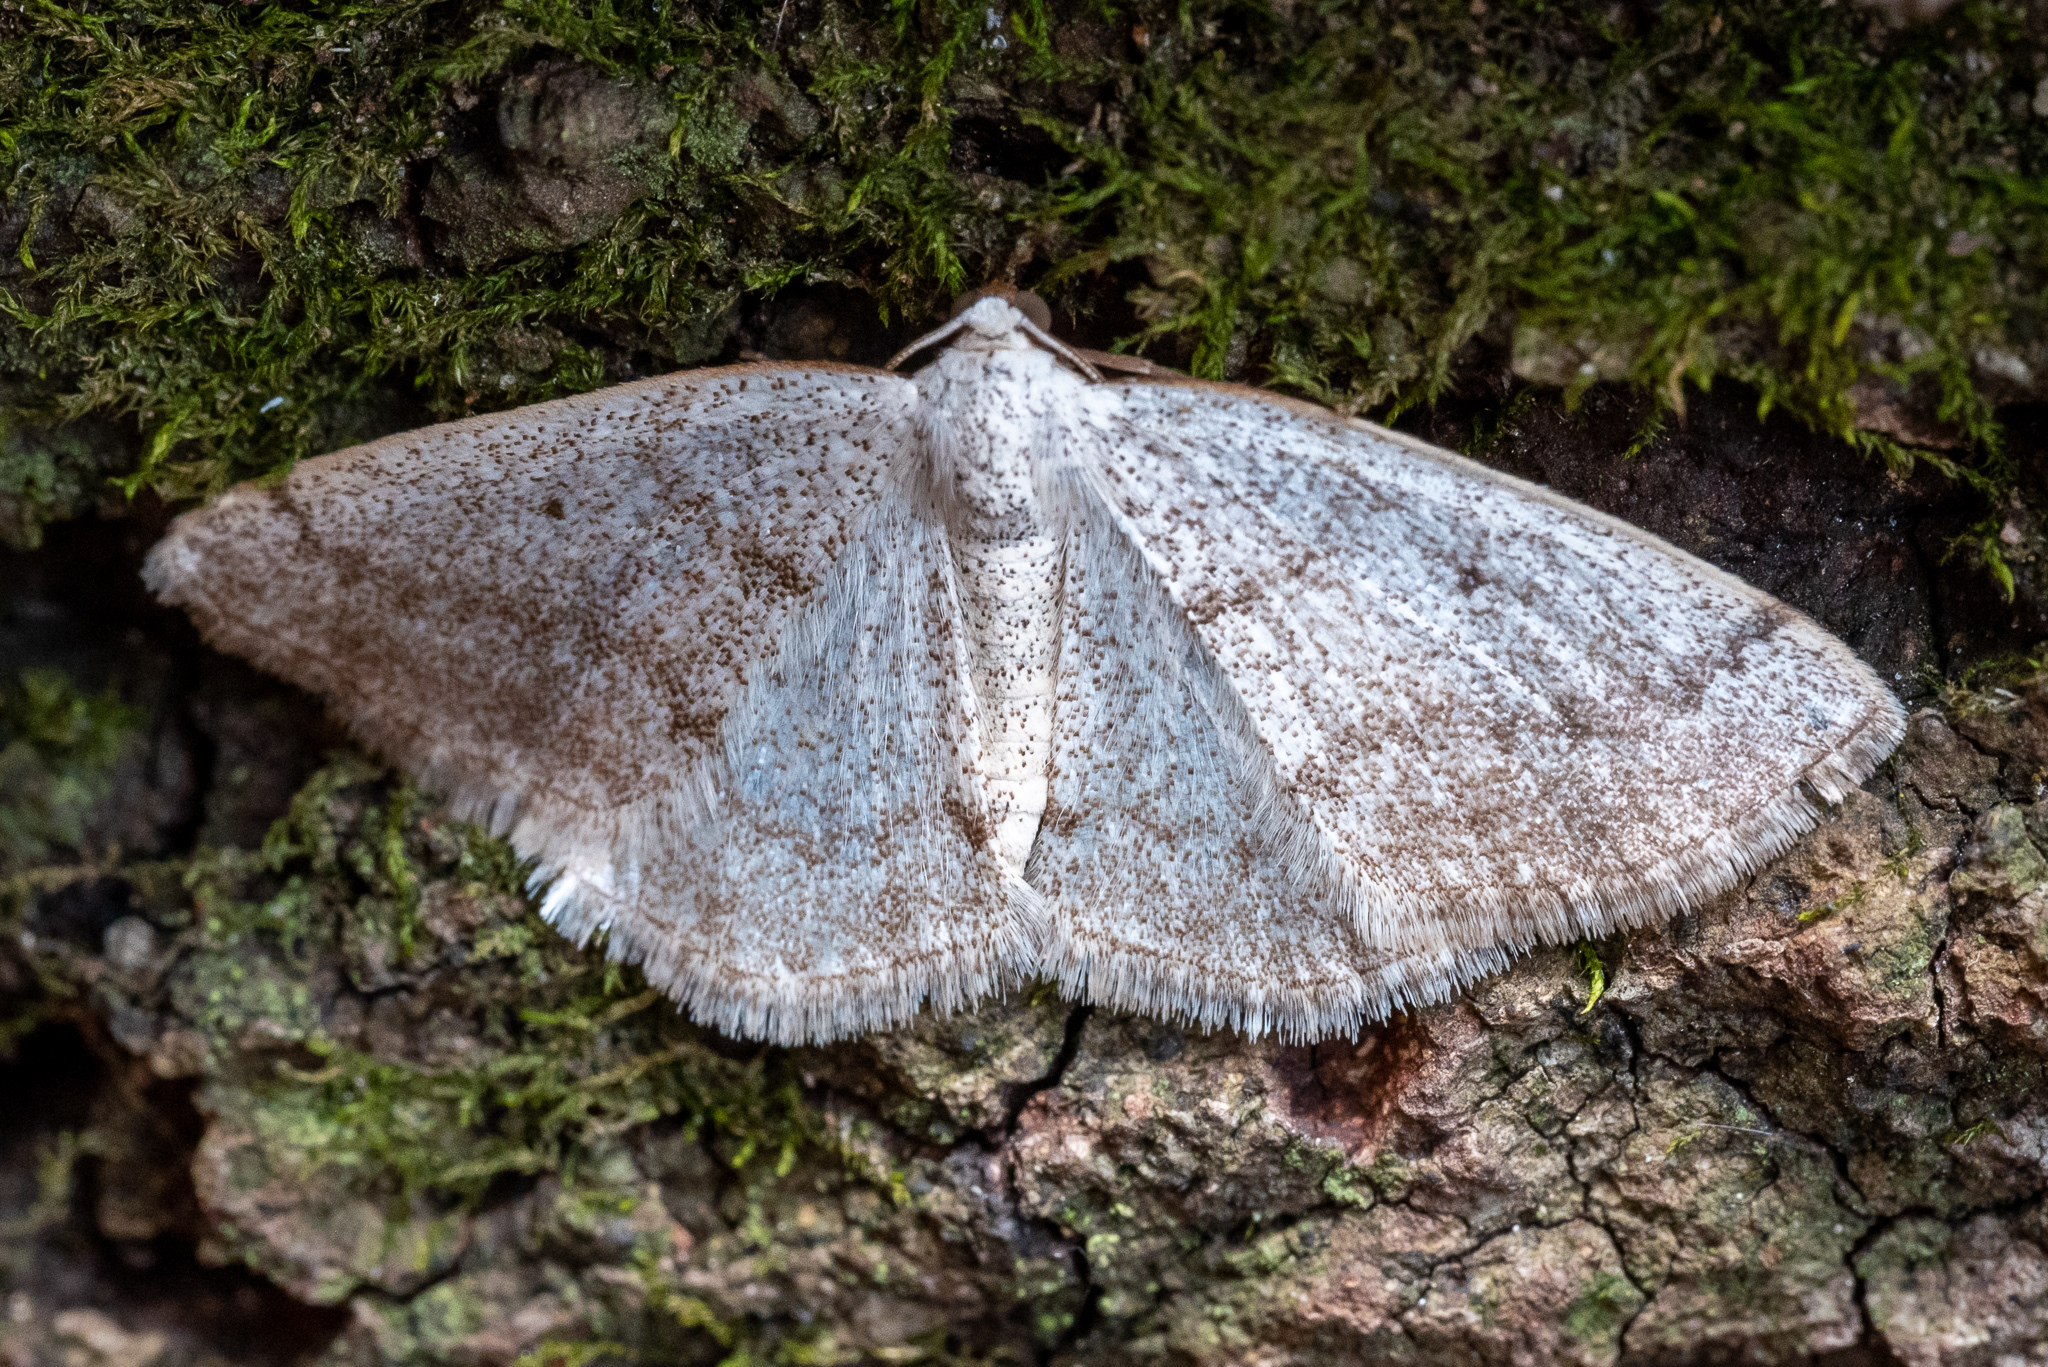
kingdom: Animalia
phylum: Arthropoda
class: Insecta
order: Lepidoptera
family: Geometridae
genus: Lomographa
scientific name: Lomographa glomeraria
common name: Gray spring moth
